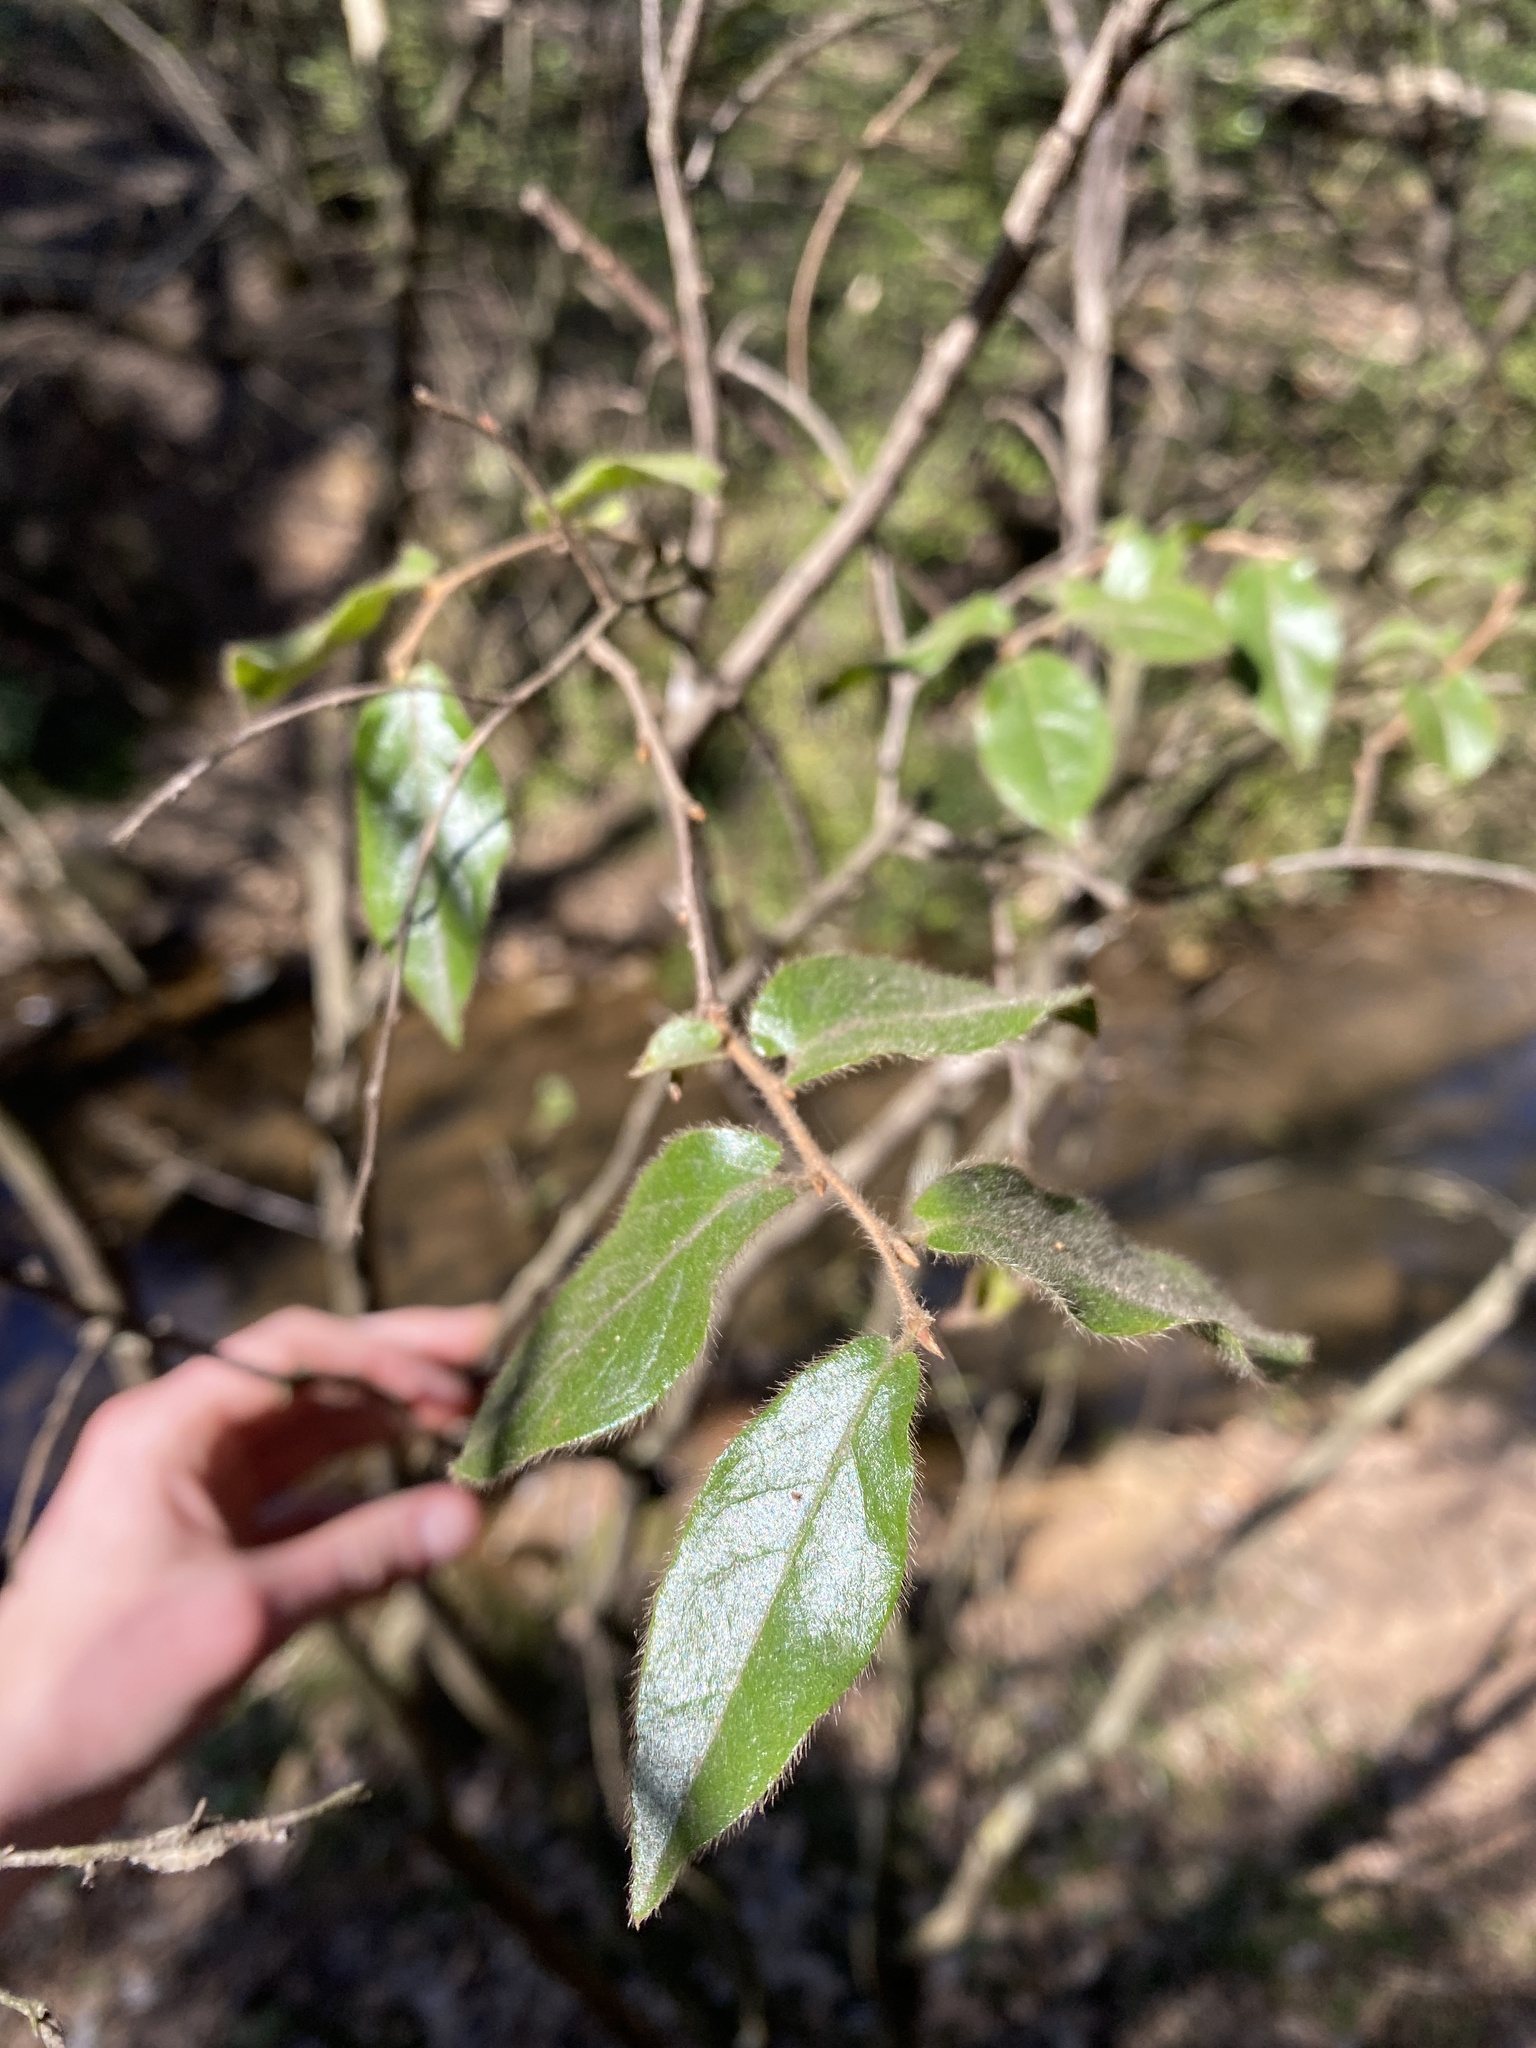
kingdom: Plantae
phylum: Tracheophyta
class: Magnoliopsida
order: Ericales
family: Ebenaceae
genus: Diospyros
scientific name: Diospyros whyteana
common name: Bladder-nut
